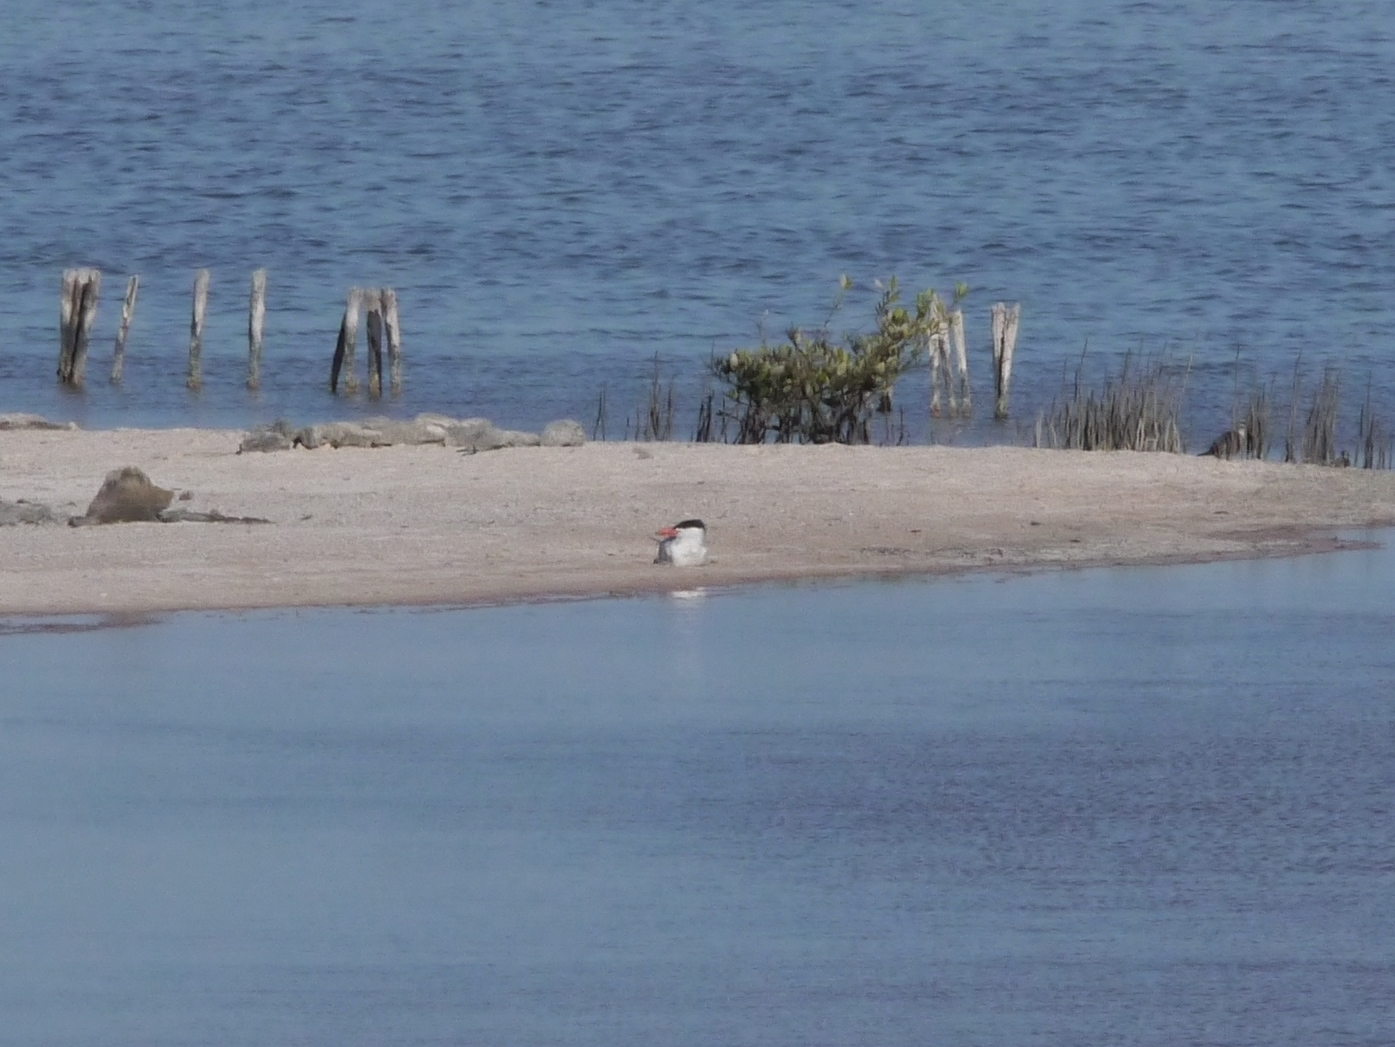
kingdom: Animalia
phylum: Chordata
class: Aves
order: Charadriiformes
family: Laridae
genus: Hydroprogne
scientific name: Hydroprogne caspia
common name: Caspian tern
